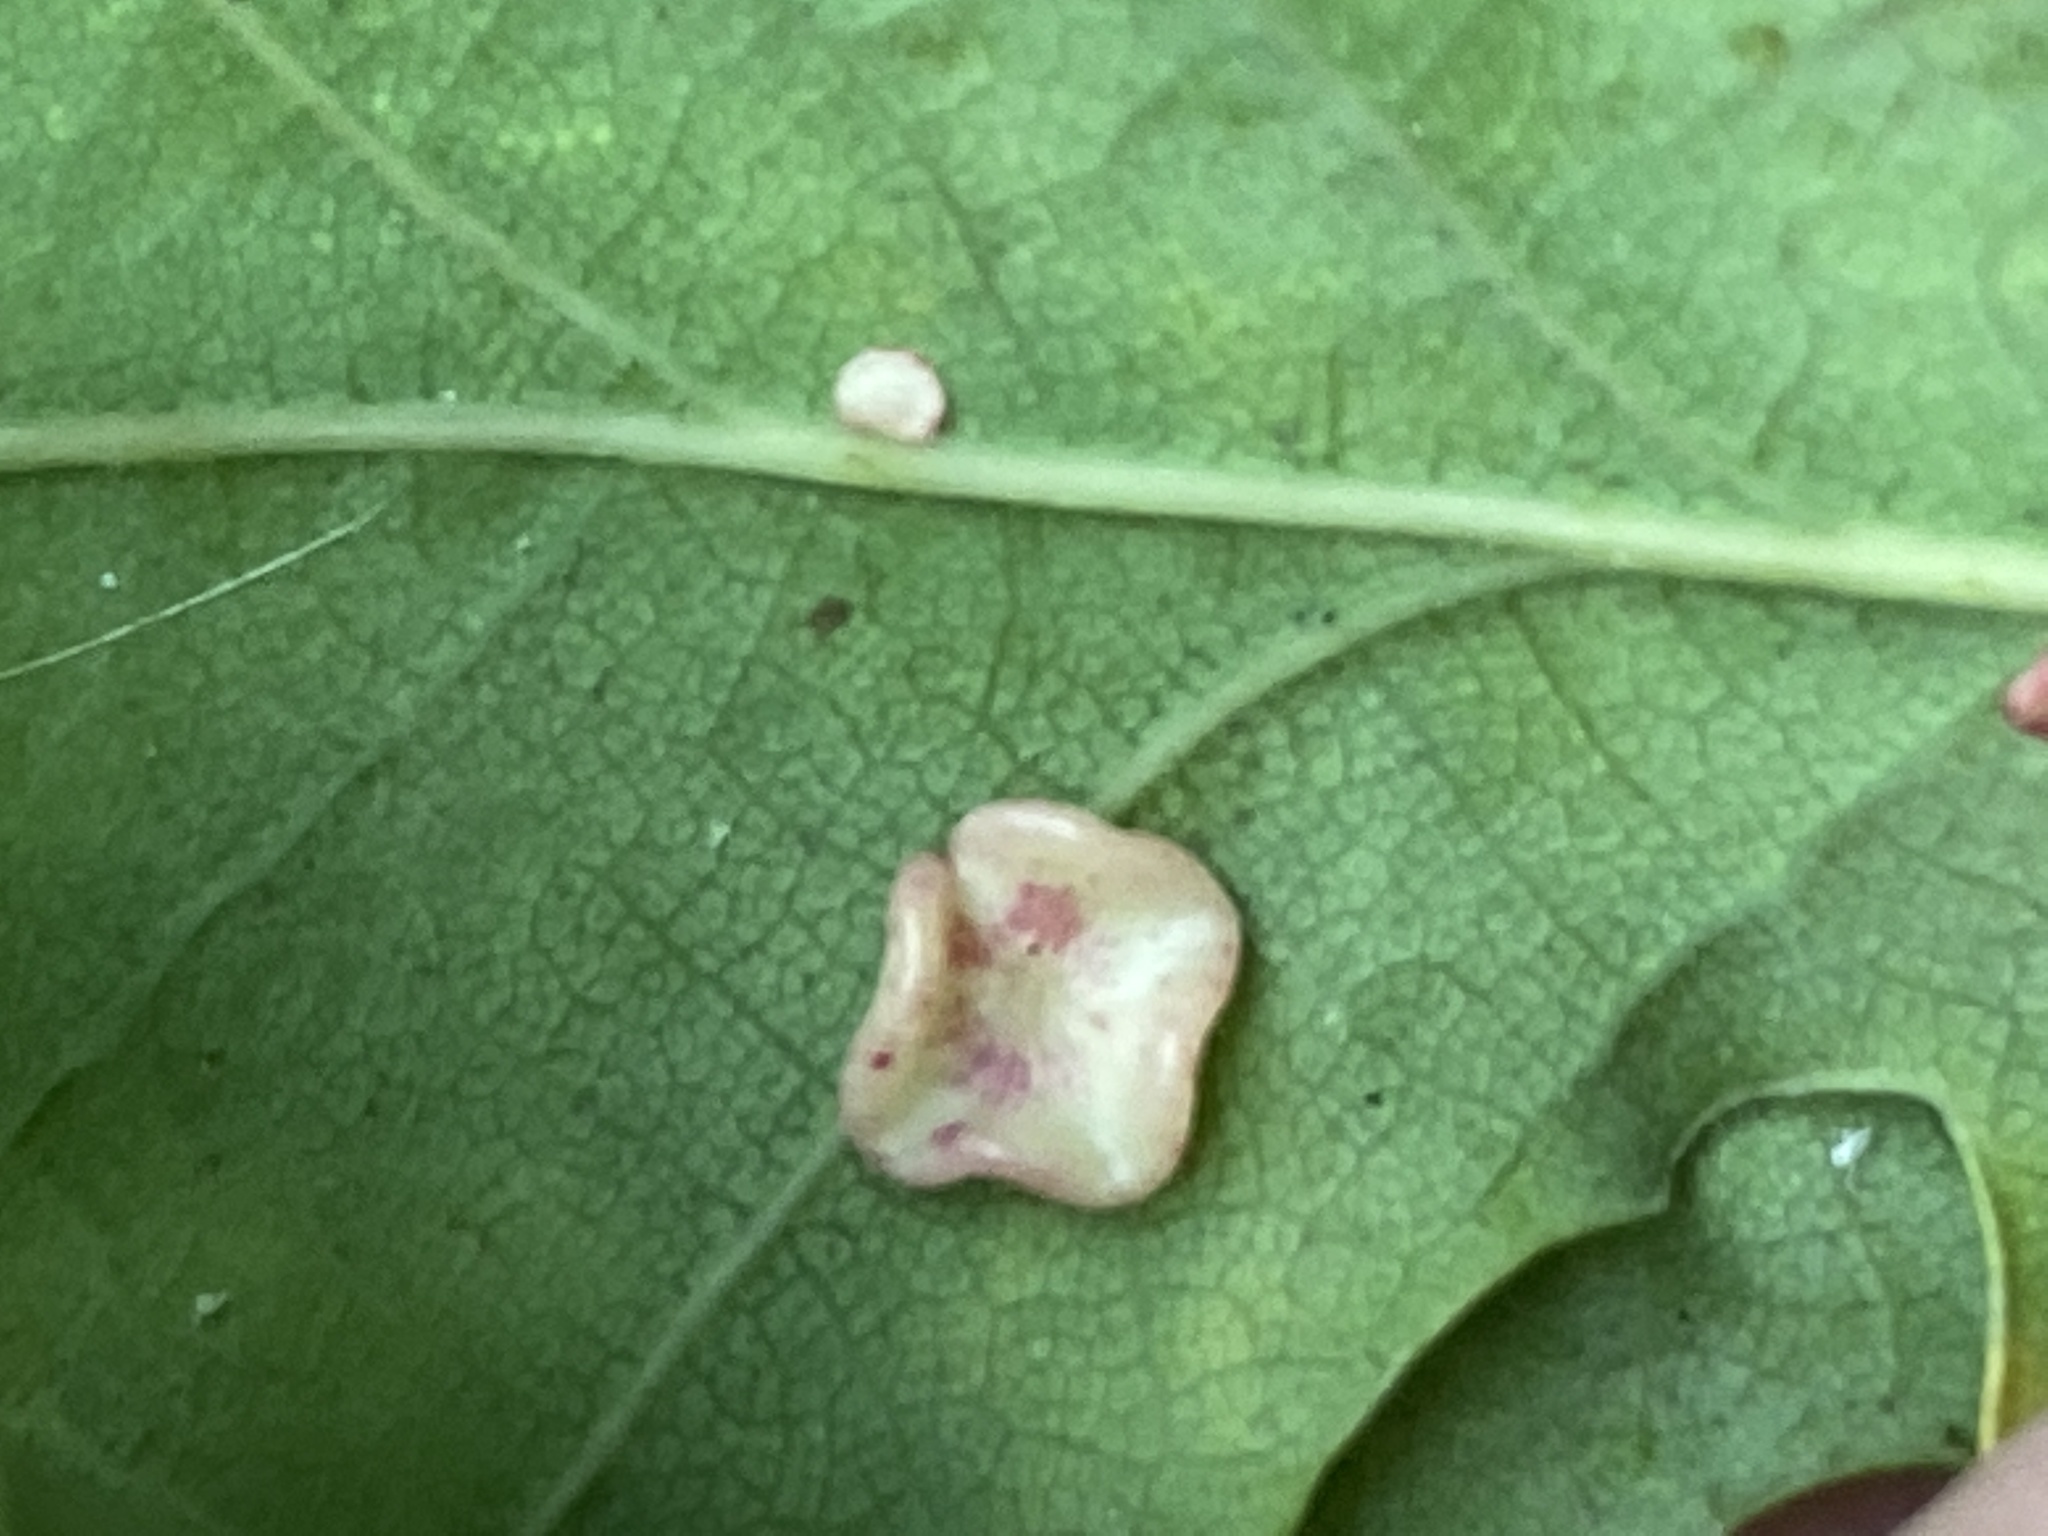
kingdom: Animalia
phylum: Arthropoda
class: Insecta
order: Hymenoptera
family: Cynipidae
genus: Neuroterus
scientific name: Neuroterus albipes
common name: Smooth spangle gall
